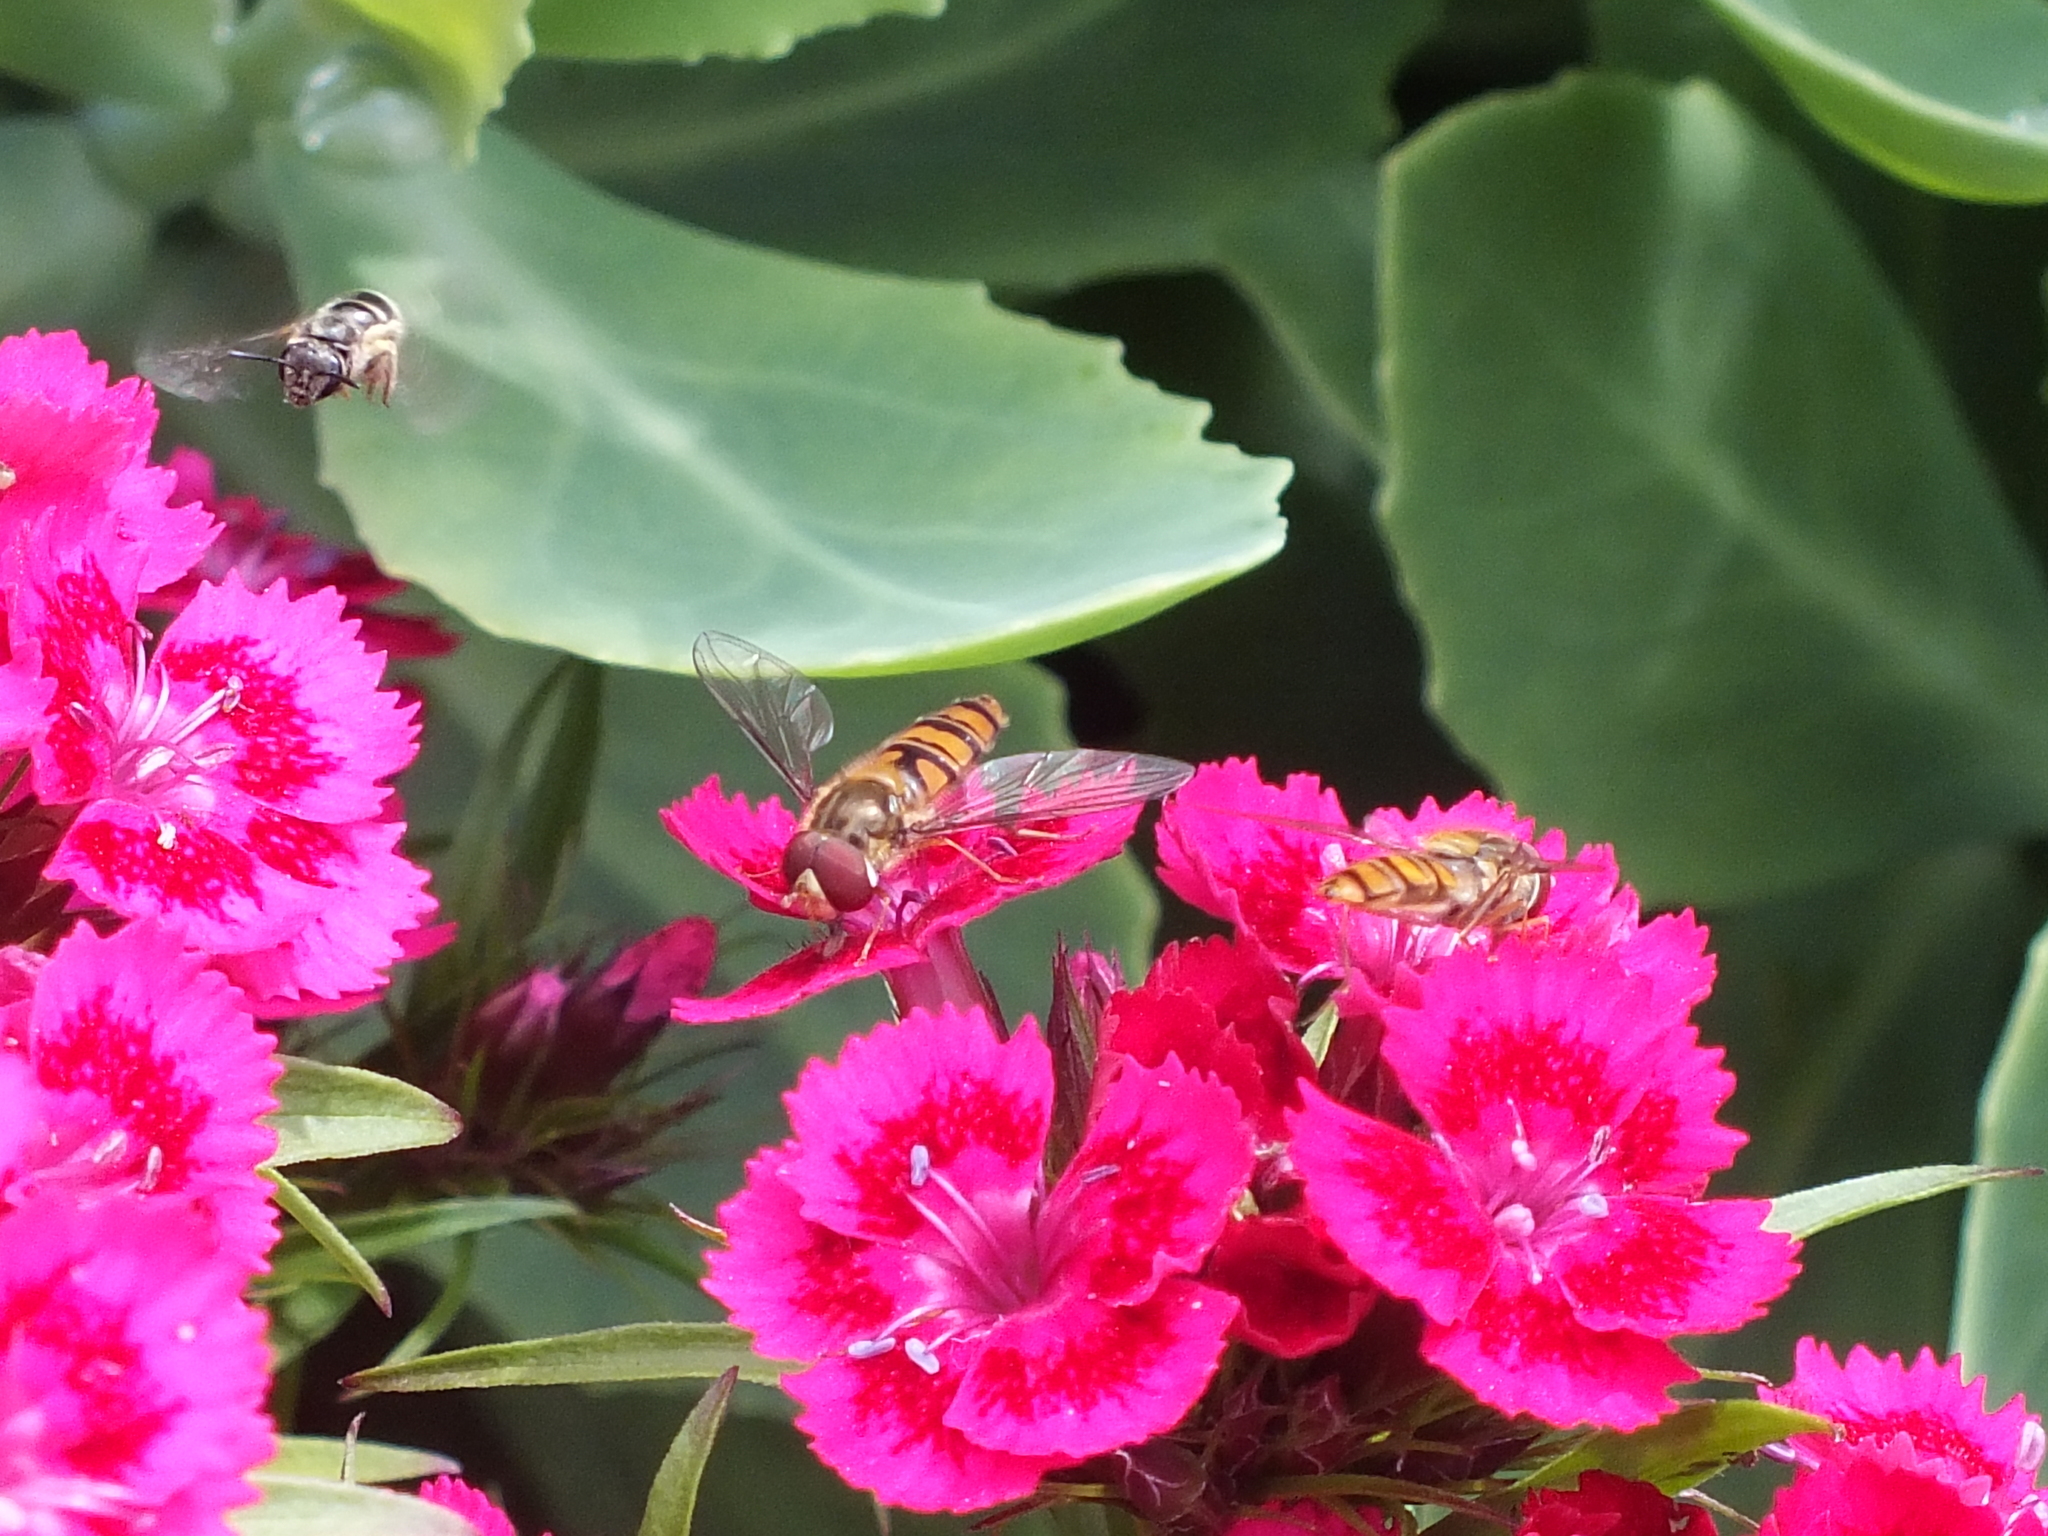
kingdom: Animalia
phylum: Arthropoda
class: Insecta
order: Diptera
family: Syrphidae
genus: Episyrphus
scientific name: Episyrphus balteatus
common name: Marmalade hoverfly
